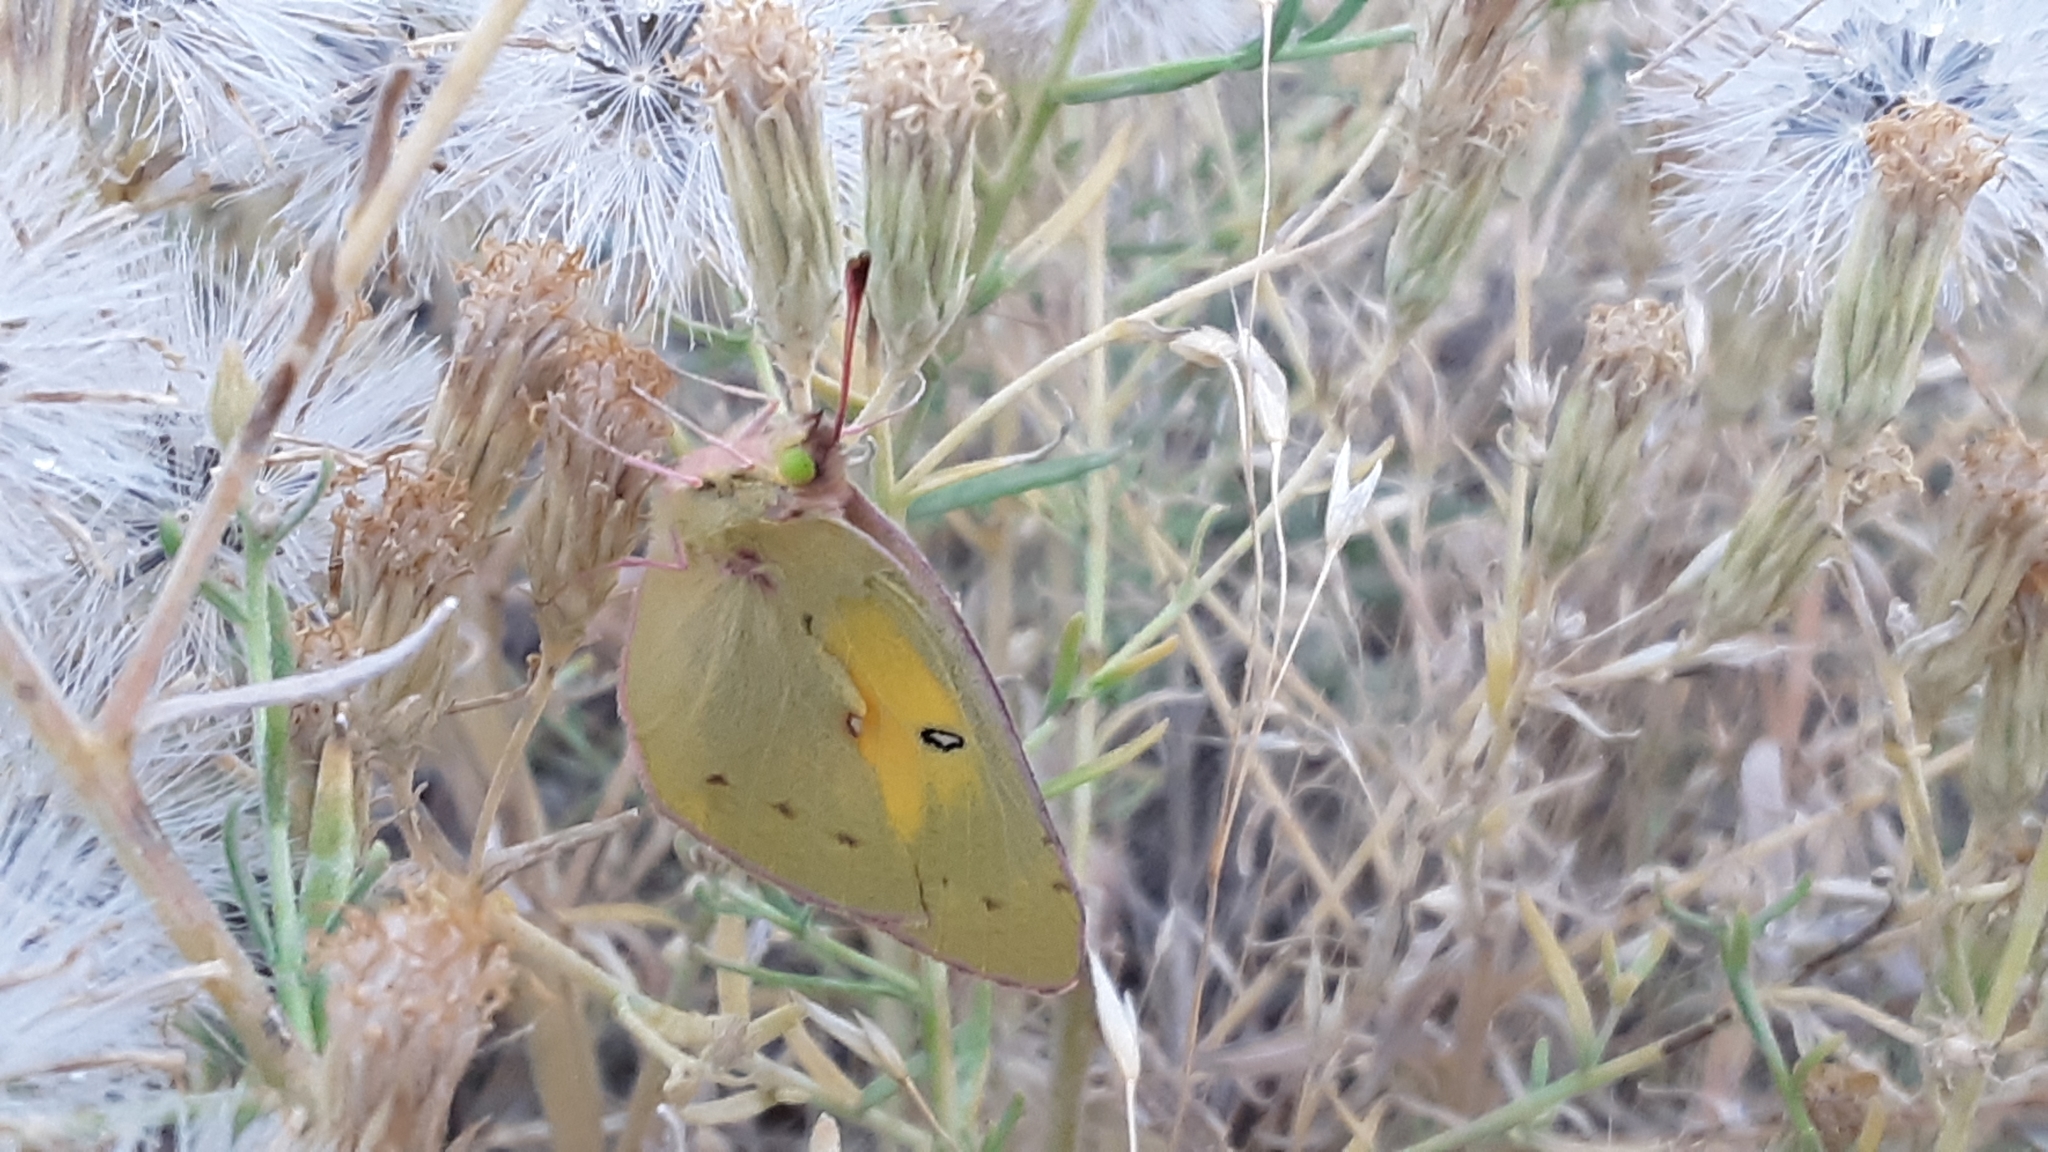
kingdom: Animalia
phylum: Arthropoda
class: Insecta
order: Lepidoptera
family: Pieridae
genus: Colias
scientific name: Colias philodice
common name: Clouded sulphur
